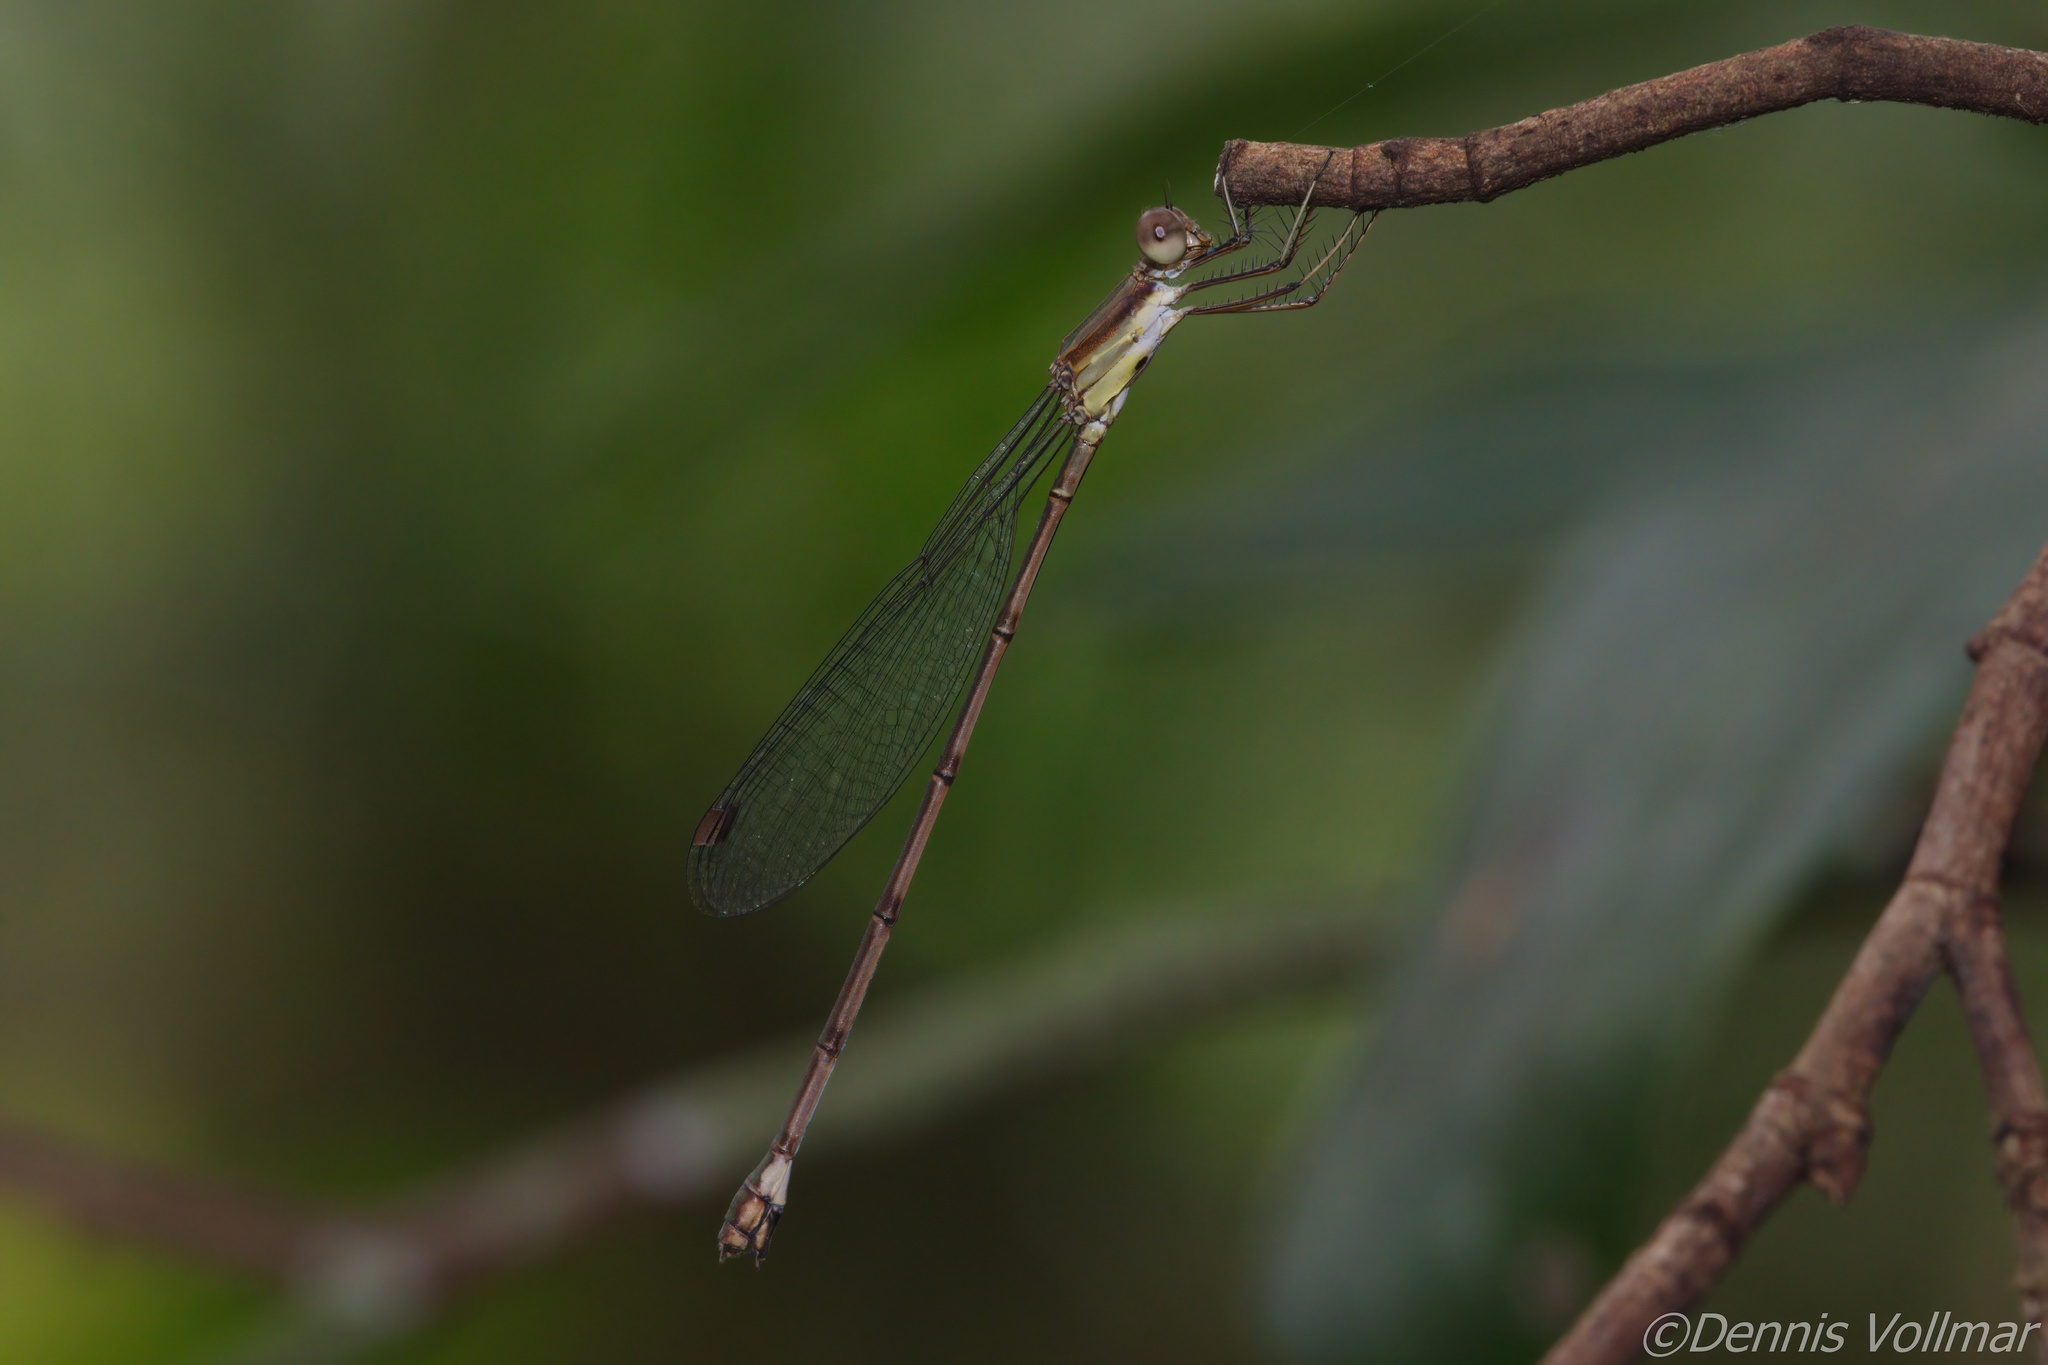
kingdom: Animalia
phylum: Arthropoda
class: Insecta
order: Odonata
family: Lestidae
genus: Lestes
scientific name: Lestes tenuatus
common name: Blue-striped spreadwing
